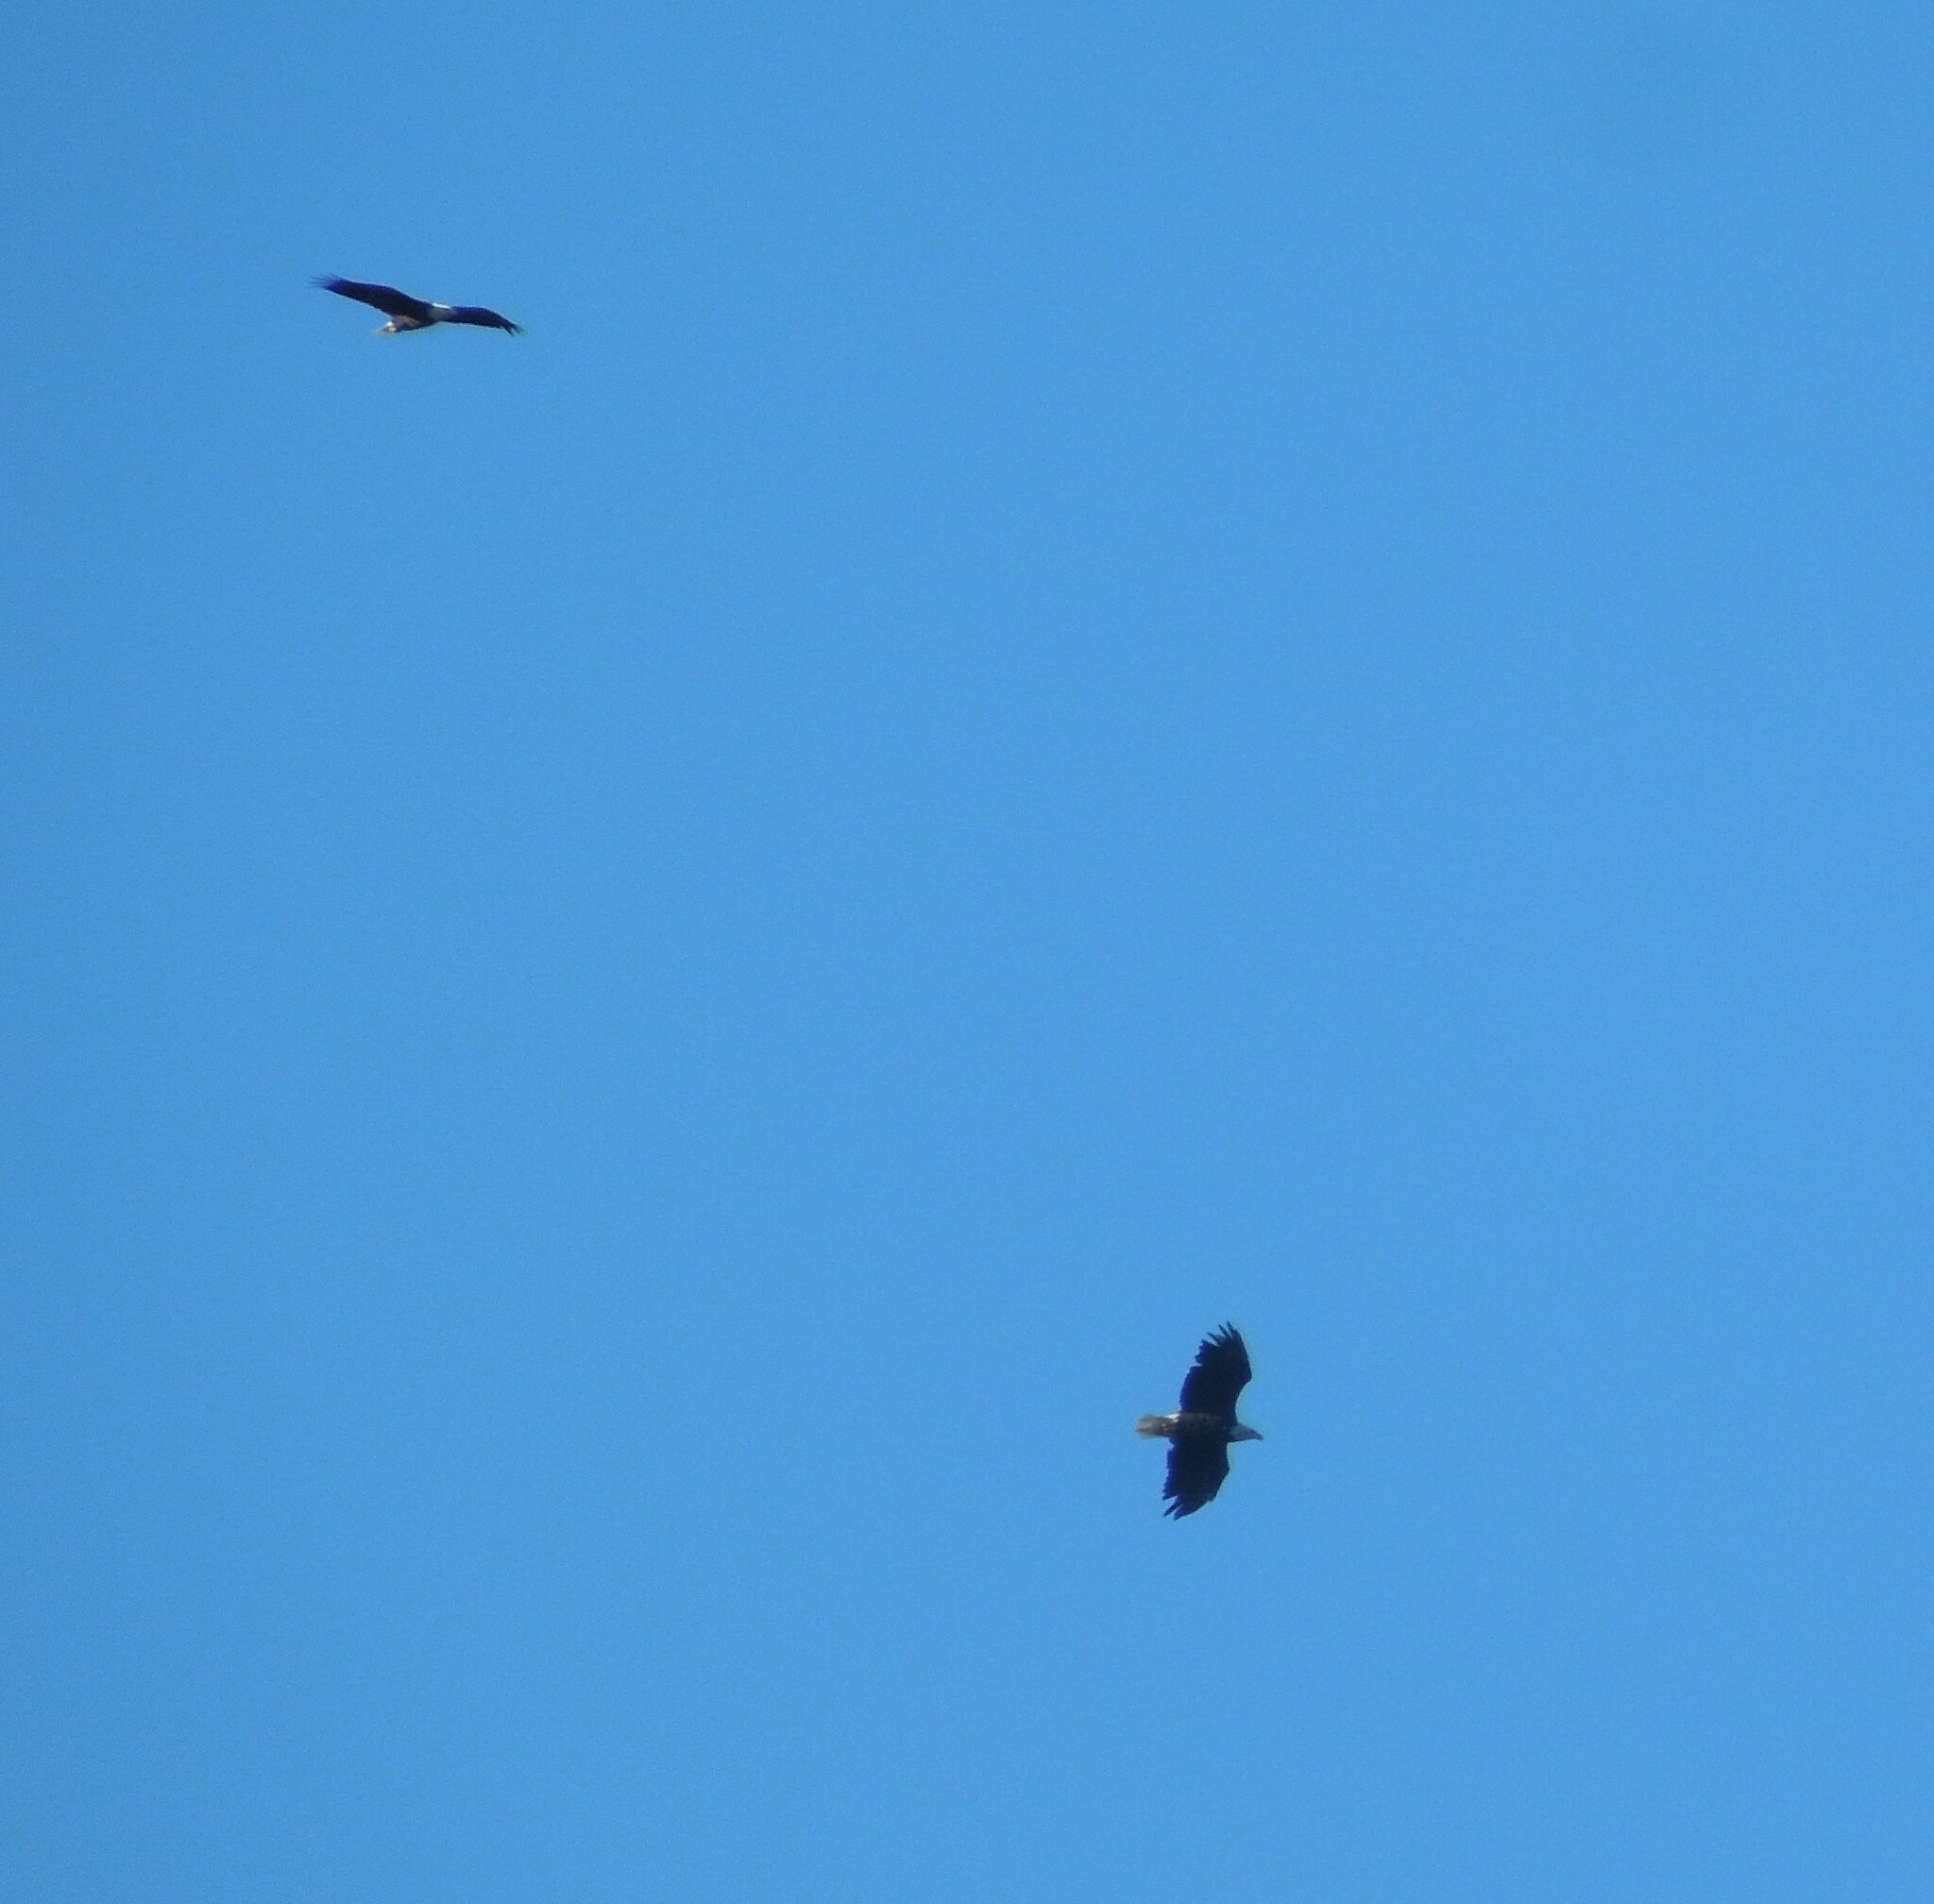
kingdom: Animalia
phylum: Chordata
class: Aves
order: Accipitriformes
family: Accipitridae
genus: Haliaeetus
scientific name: Haliaeetus leucocephalus
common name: Bald eagle
